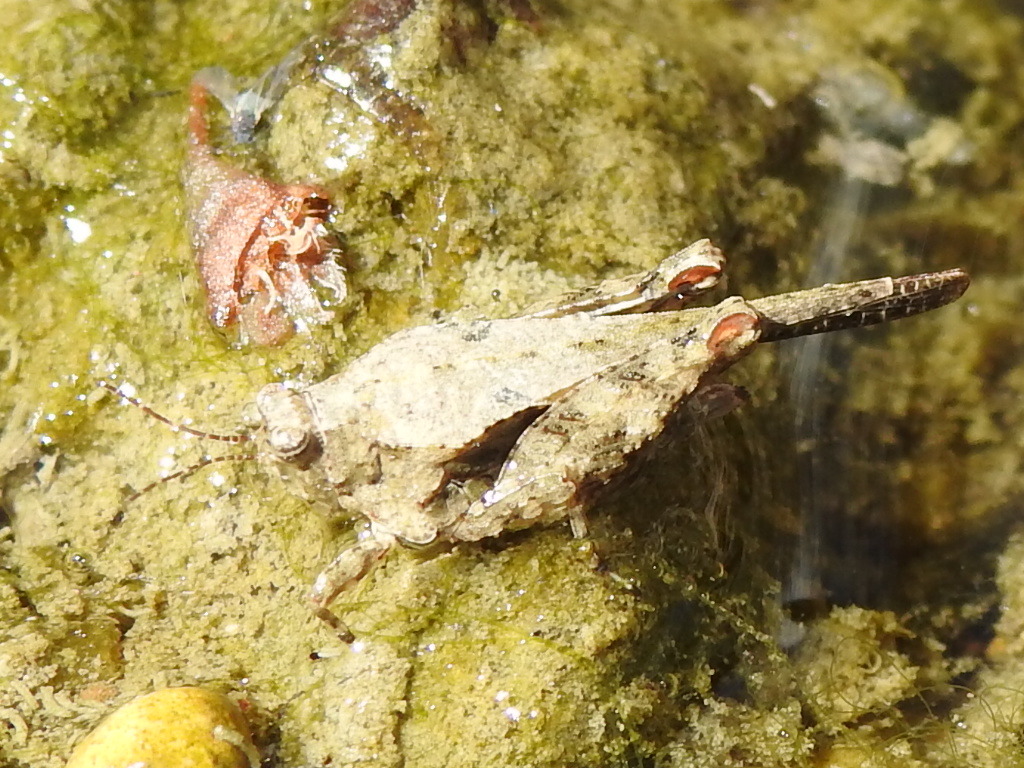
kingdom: Animalia
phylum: Arthropoda
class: Insecta
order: Orthoptera
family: Tetrigidae
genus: Paratettix
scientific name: Paratettix mexicanus
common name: Mexican pygmy grasshopper
